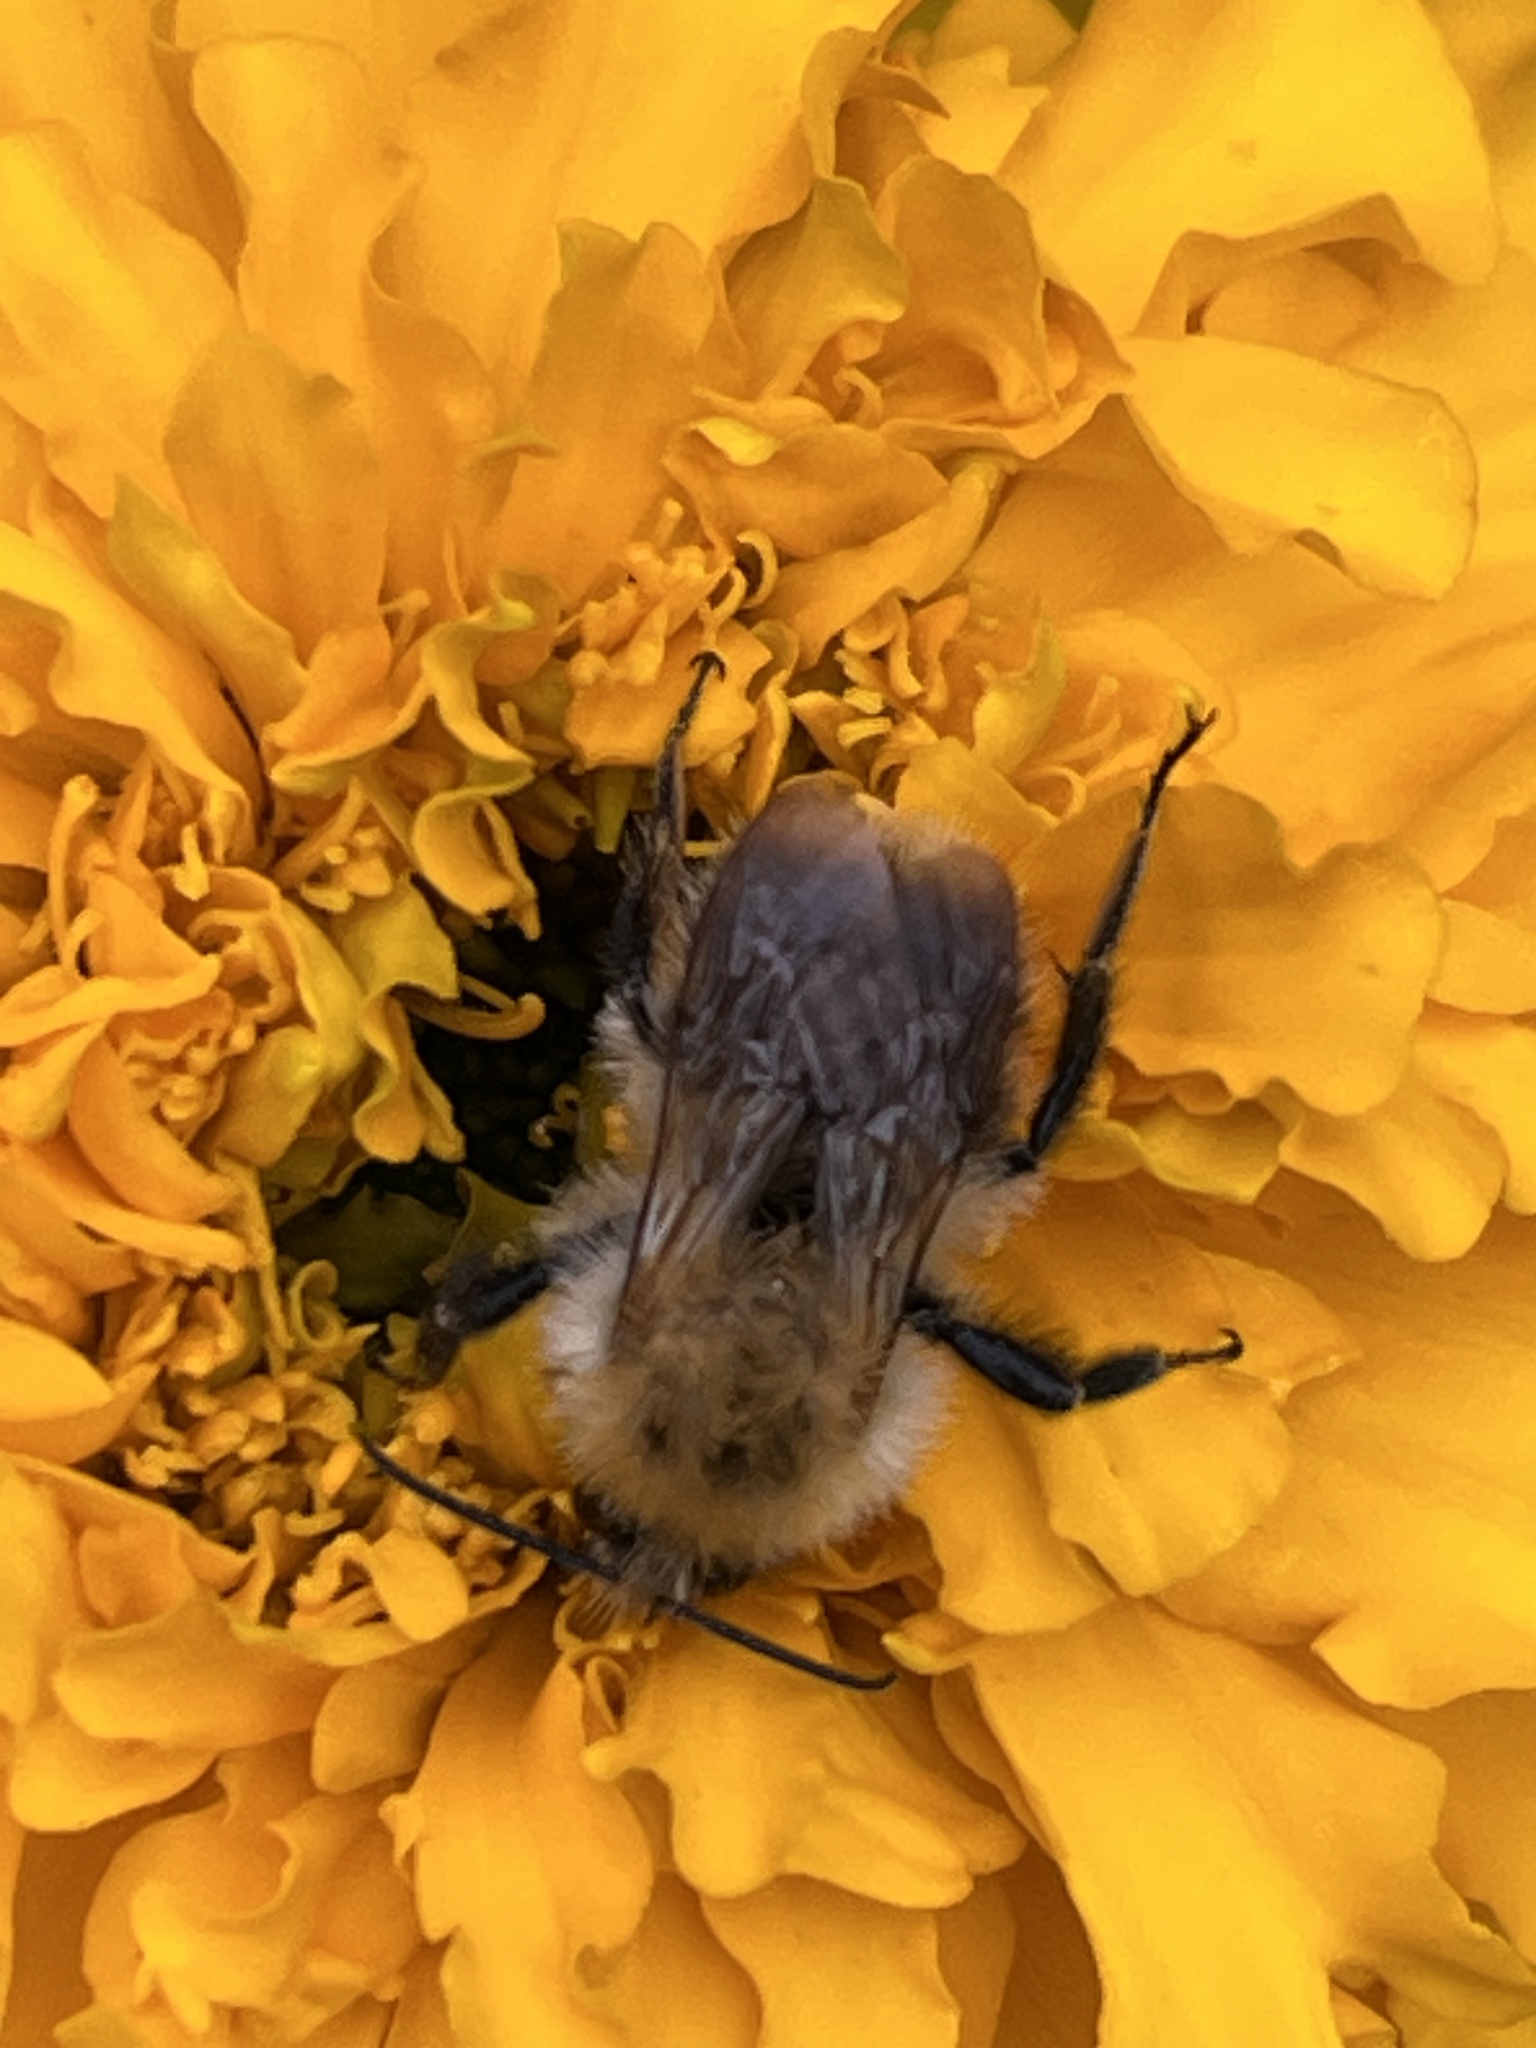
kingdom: Animalia
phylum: Arthropoda
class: Insecta
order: Hymenoptera
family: Apidae
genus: Bombus
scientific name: Bombus pascuorum
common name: Common carder bee
